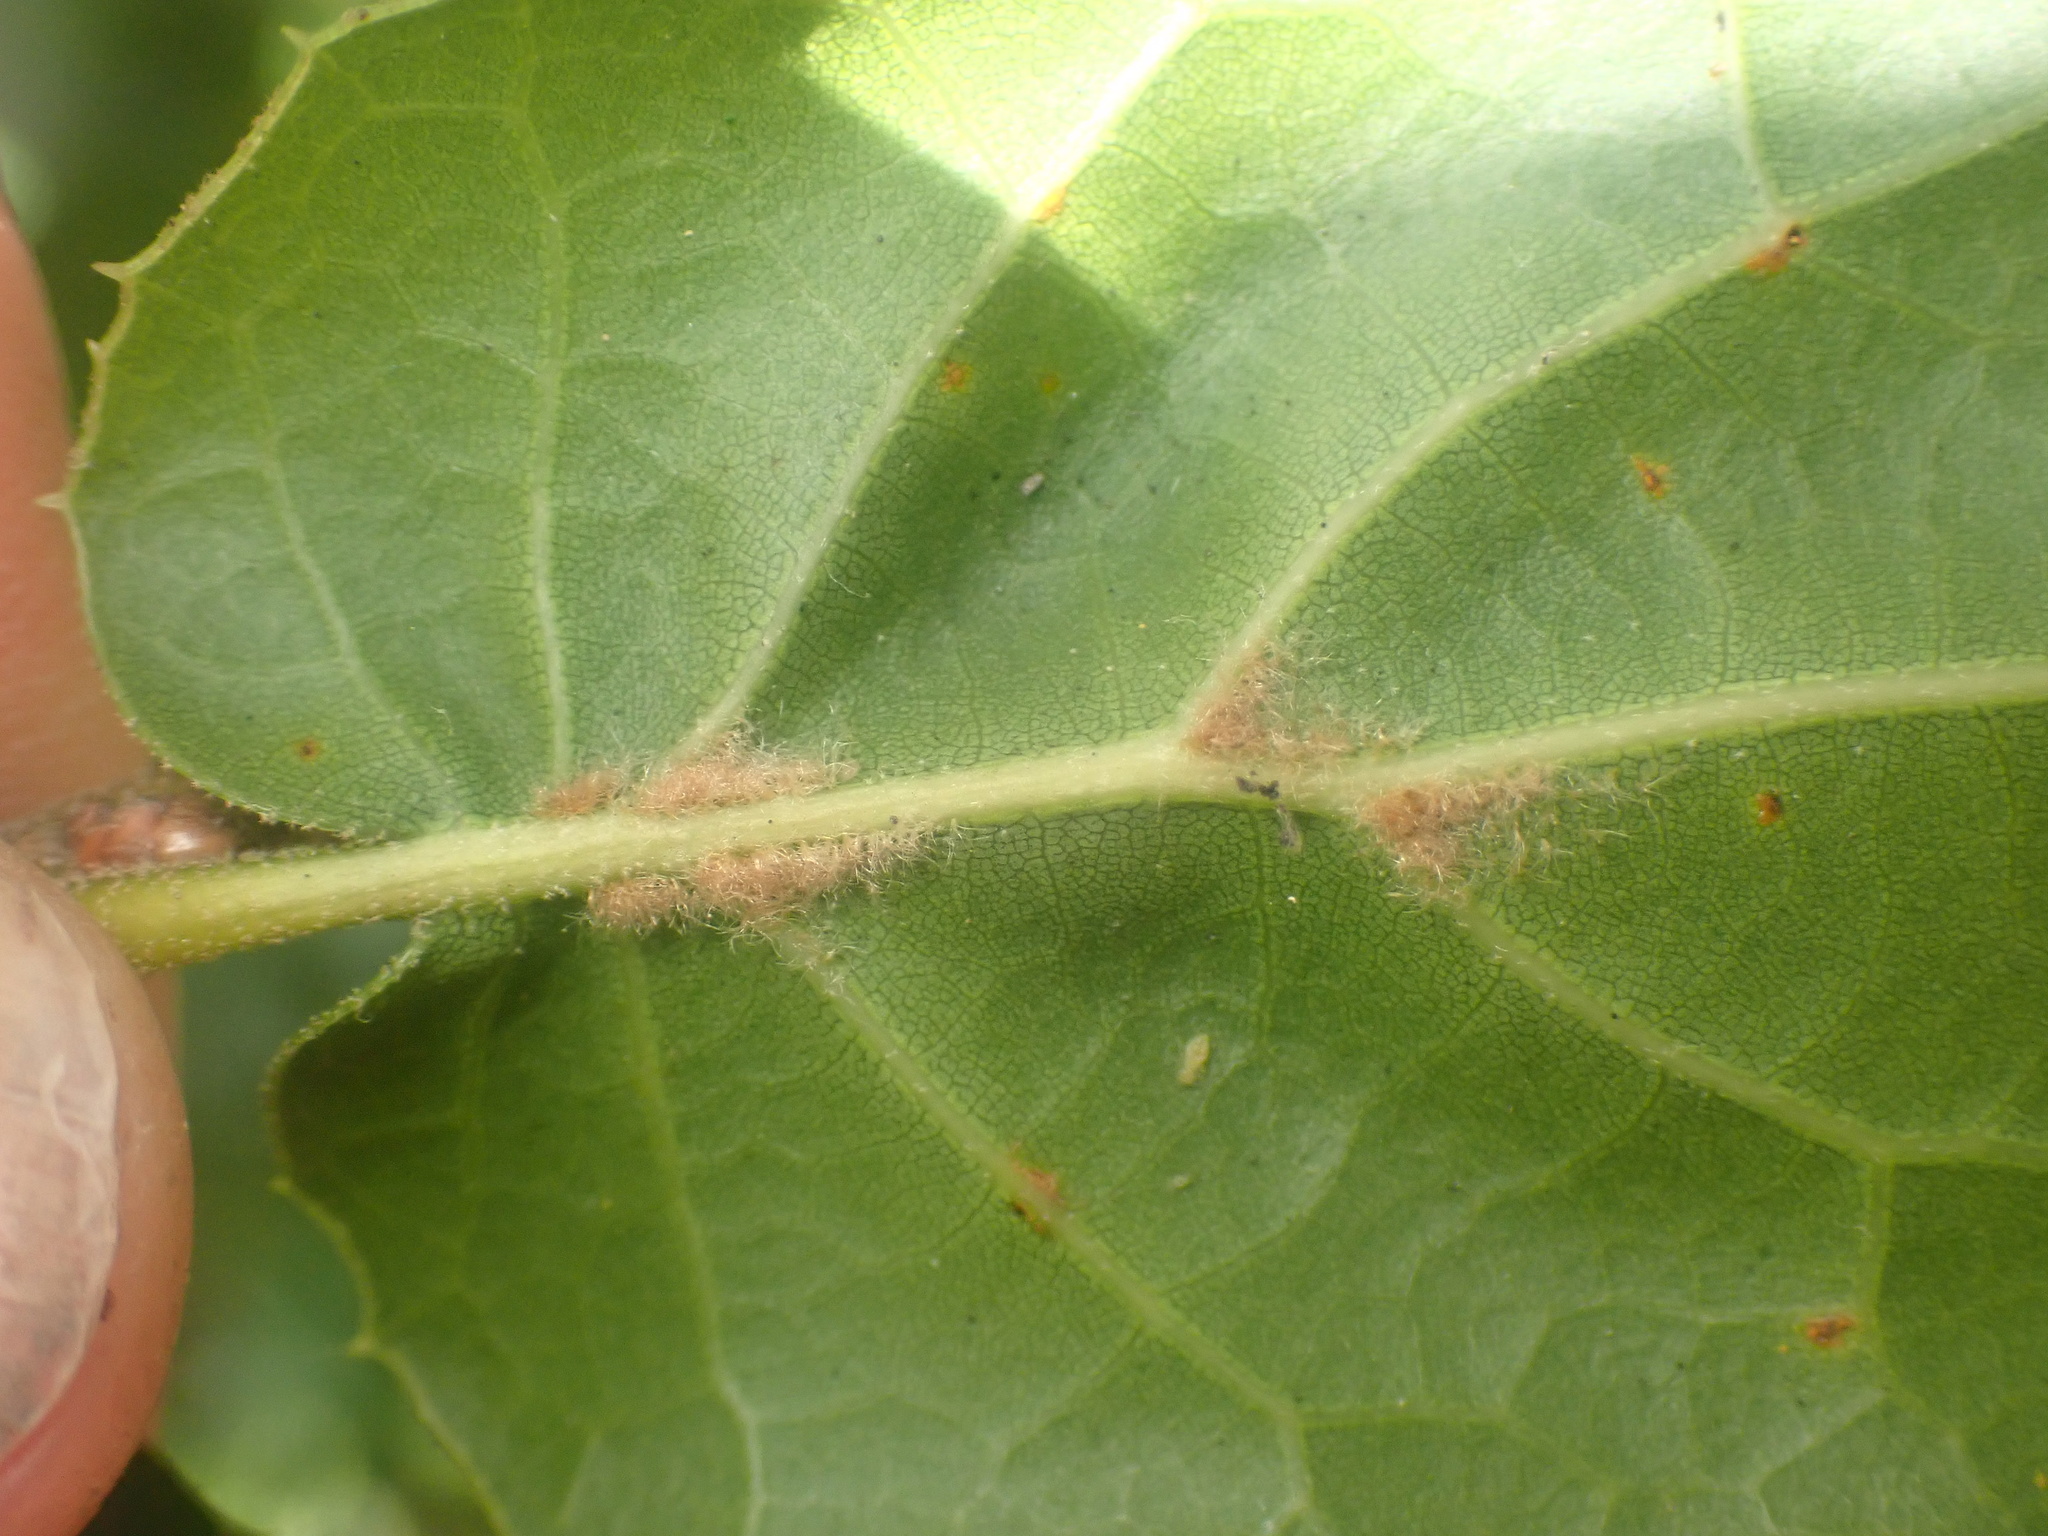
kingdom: Plantae
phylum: Tracheophyta
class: Magnoliopsida
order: Fagales
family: Fagaceae
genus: Quercus
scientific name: Quercus agrifolia
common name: California live oak
